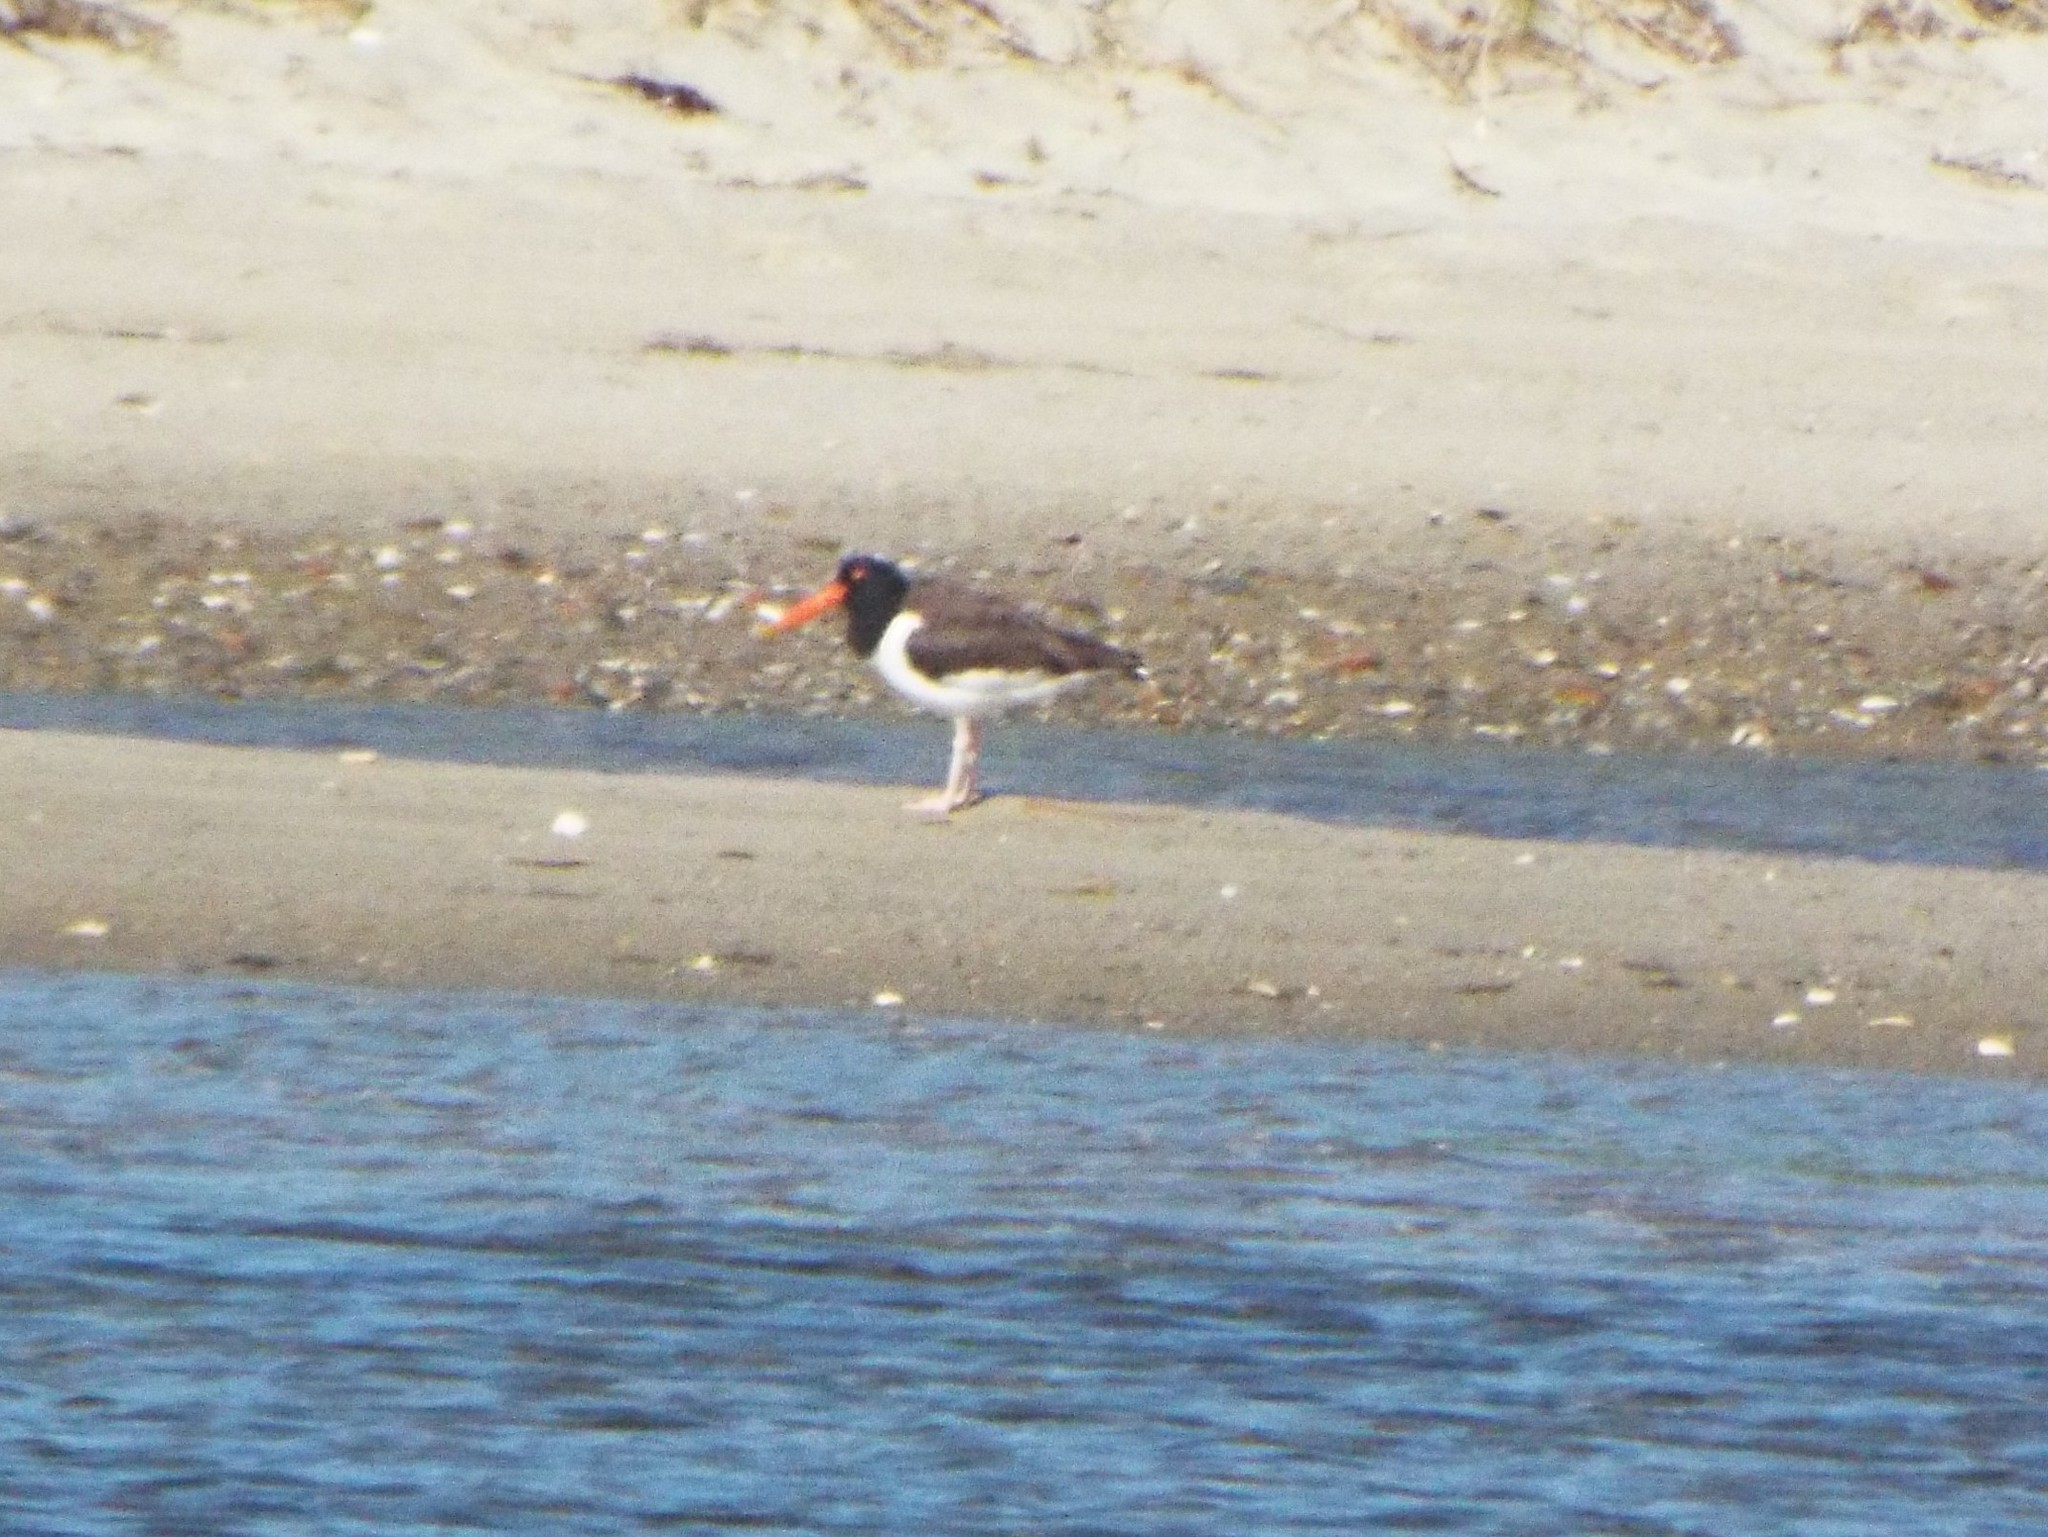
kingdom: Animalia
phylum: Chordata
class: Aves
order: Charadriiformes
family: Haematopodidae
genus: Haematopus
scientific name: Haematopus palliatus
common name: American oystercatcher
